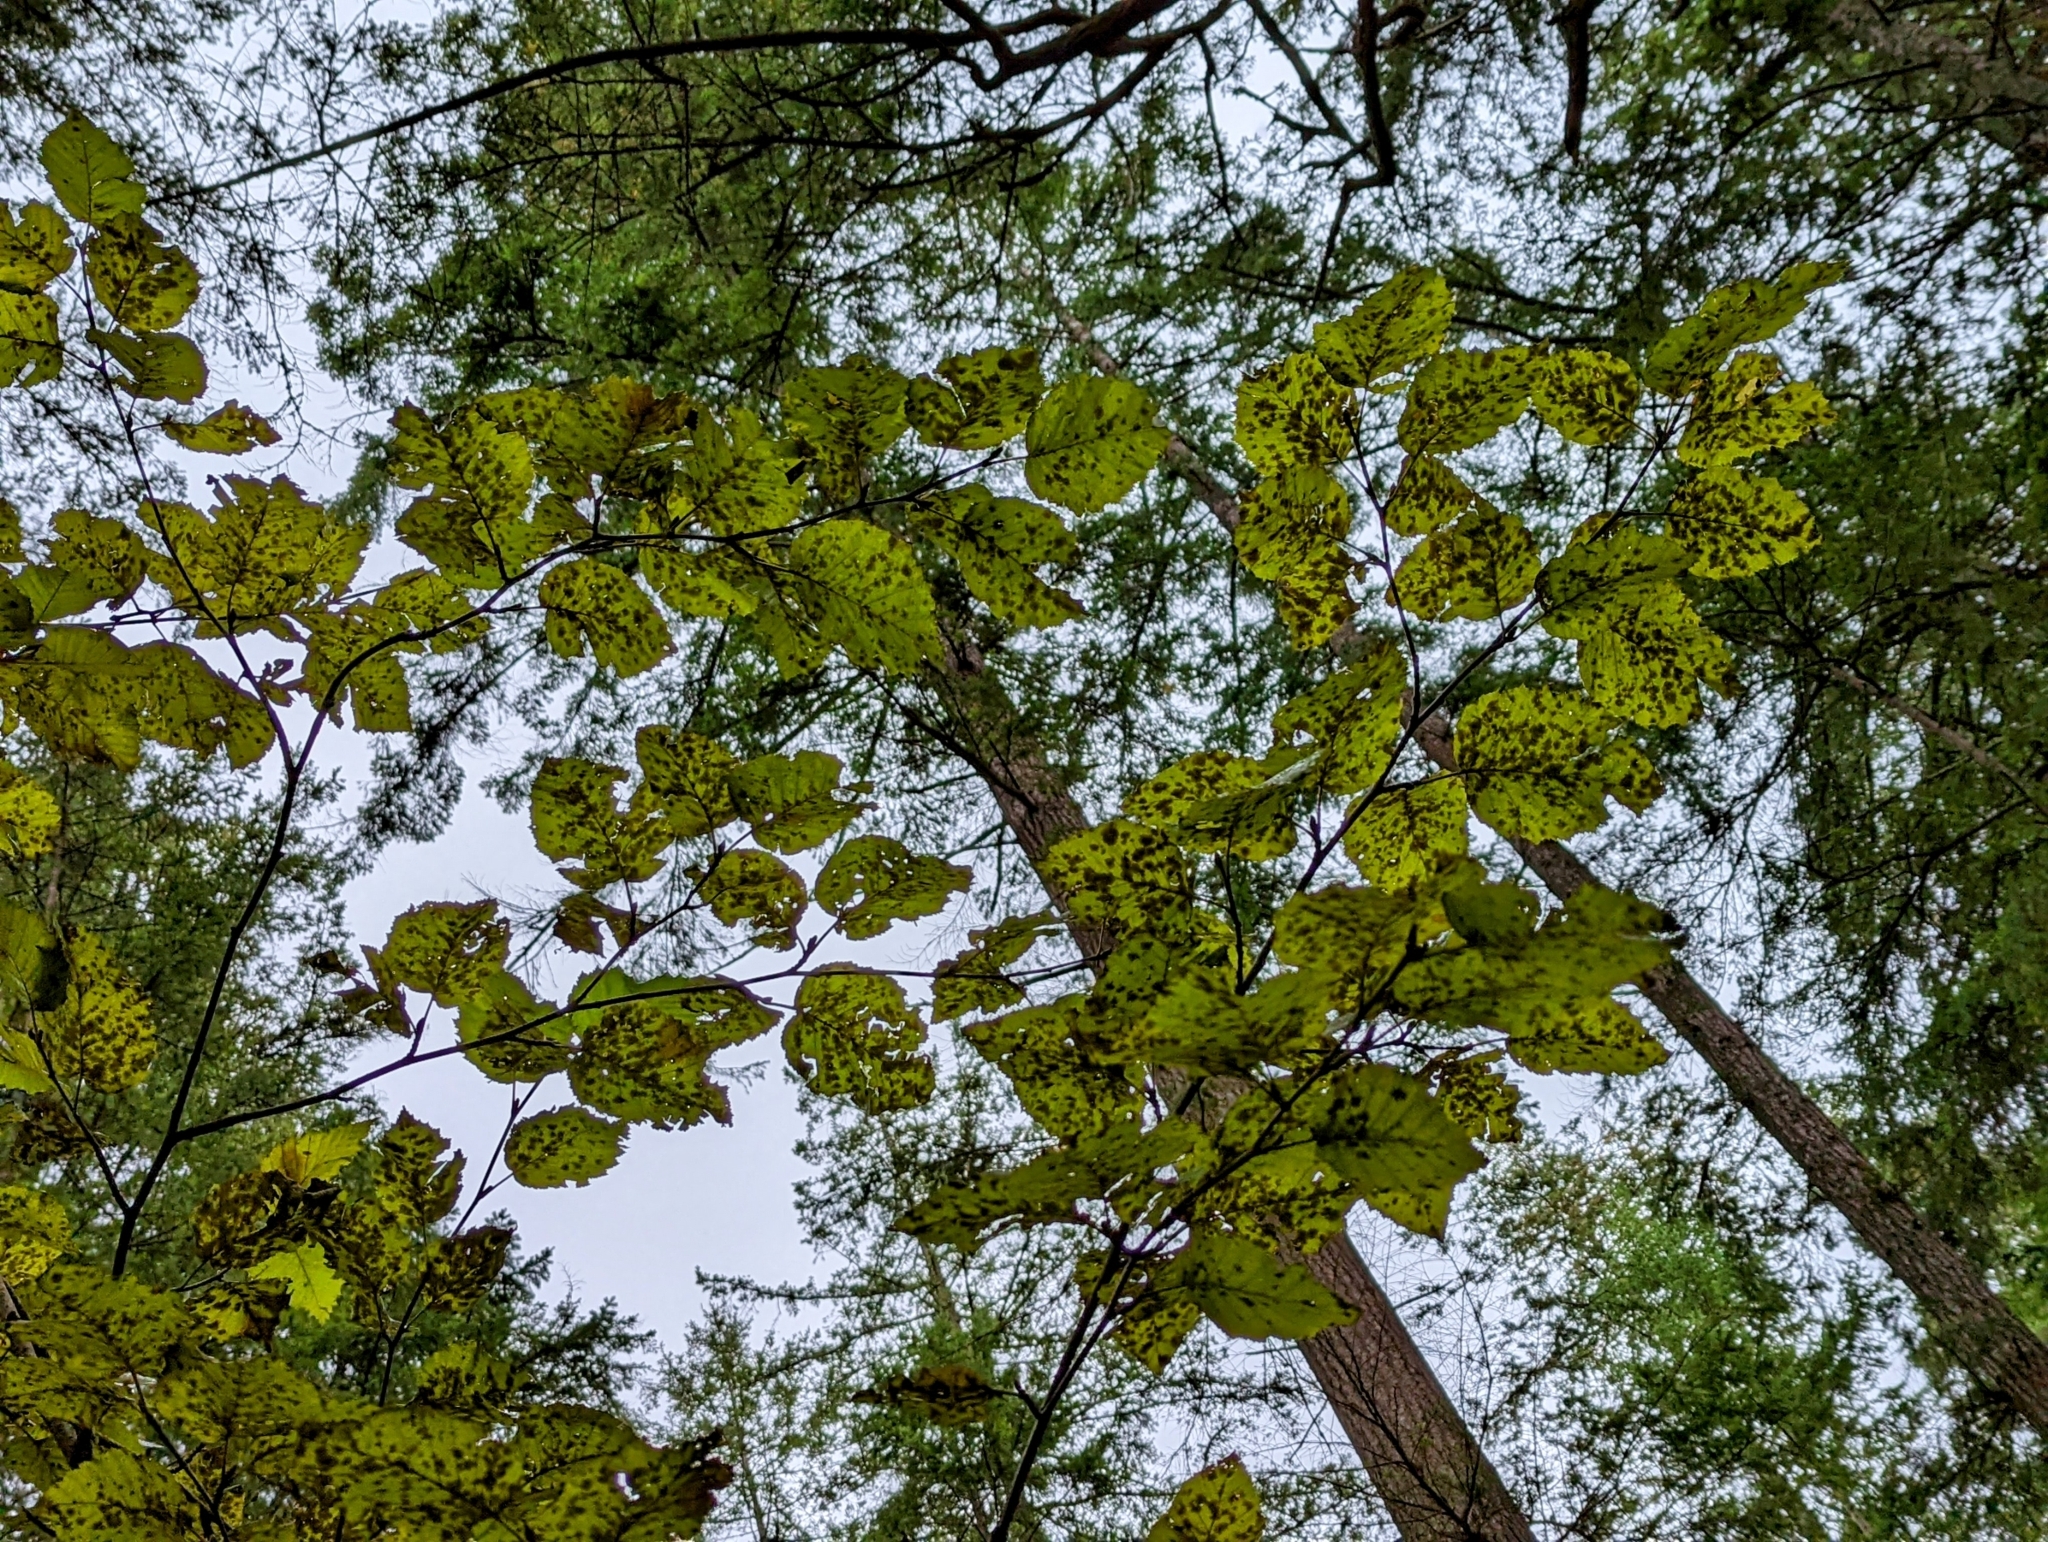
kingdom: Plantae
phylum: Tracheophyta
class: Magnoliopsida
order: Fagales
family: Betulaceae
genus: Alnus
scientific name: Alnus alnobetula
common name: Green alder
